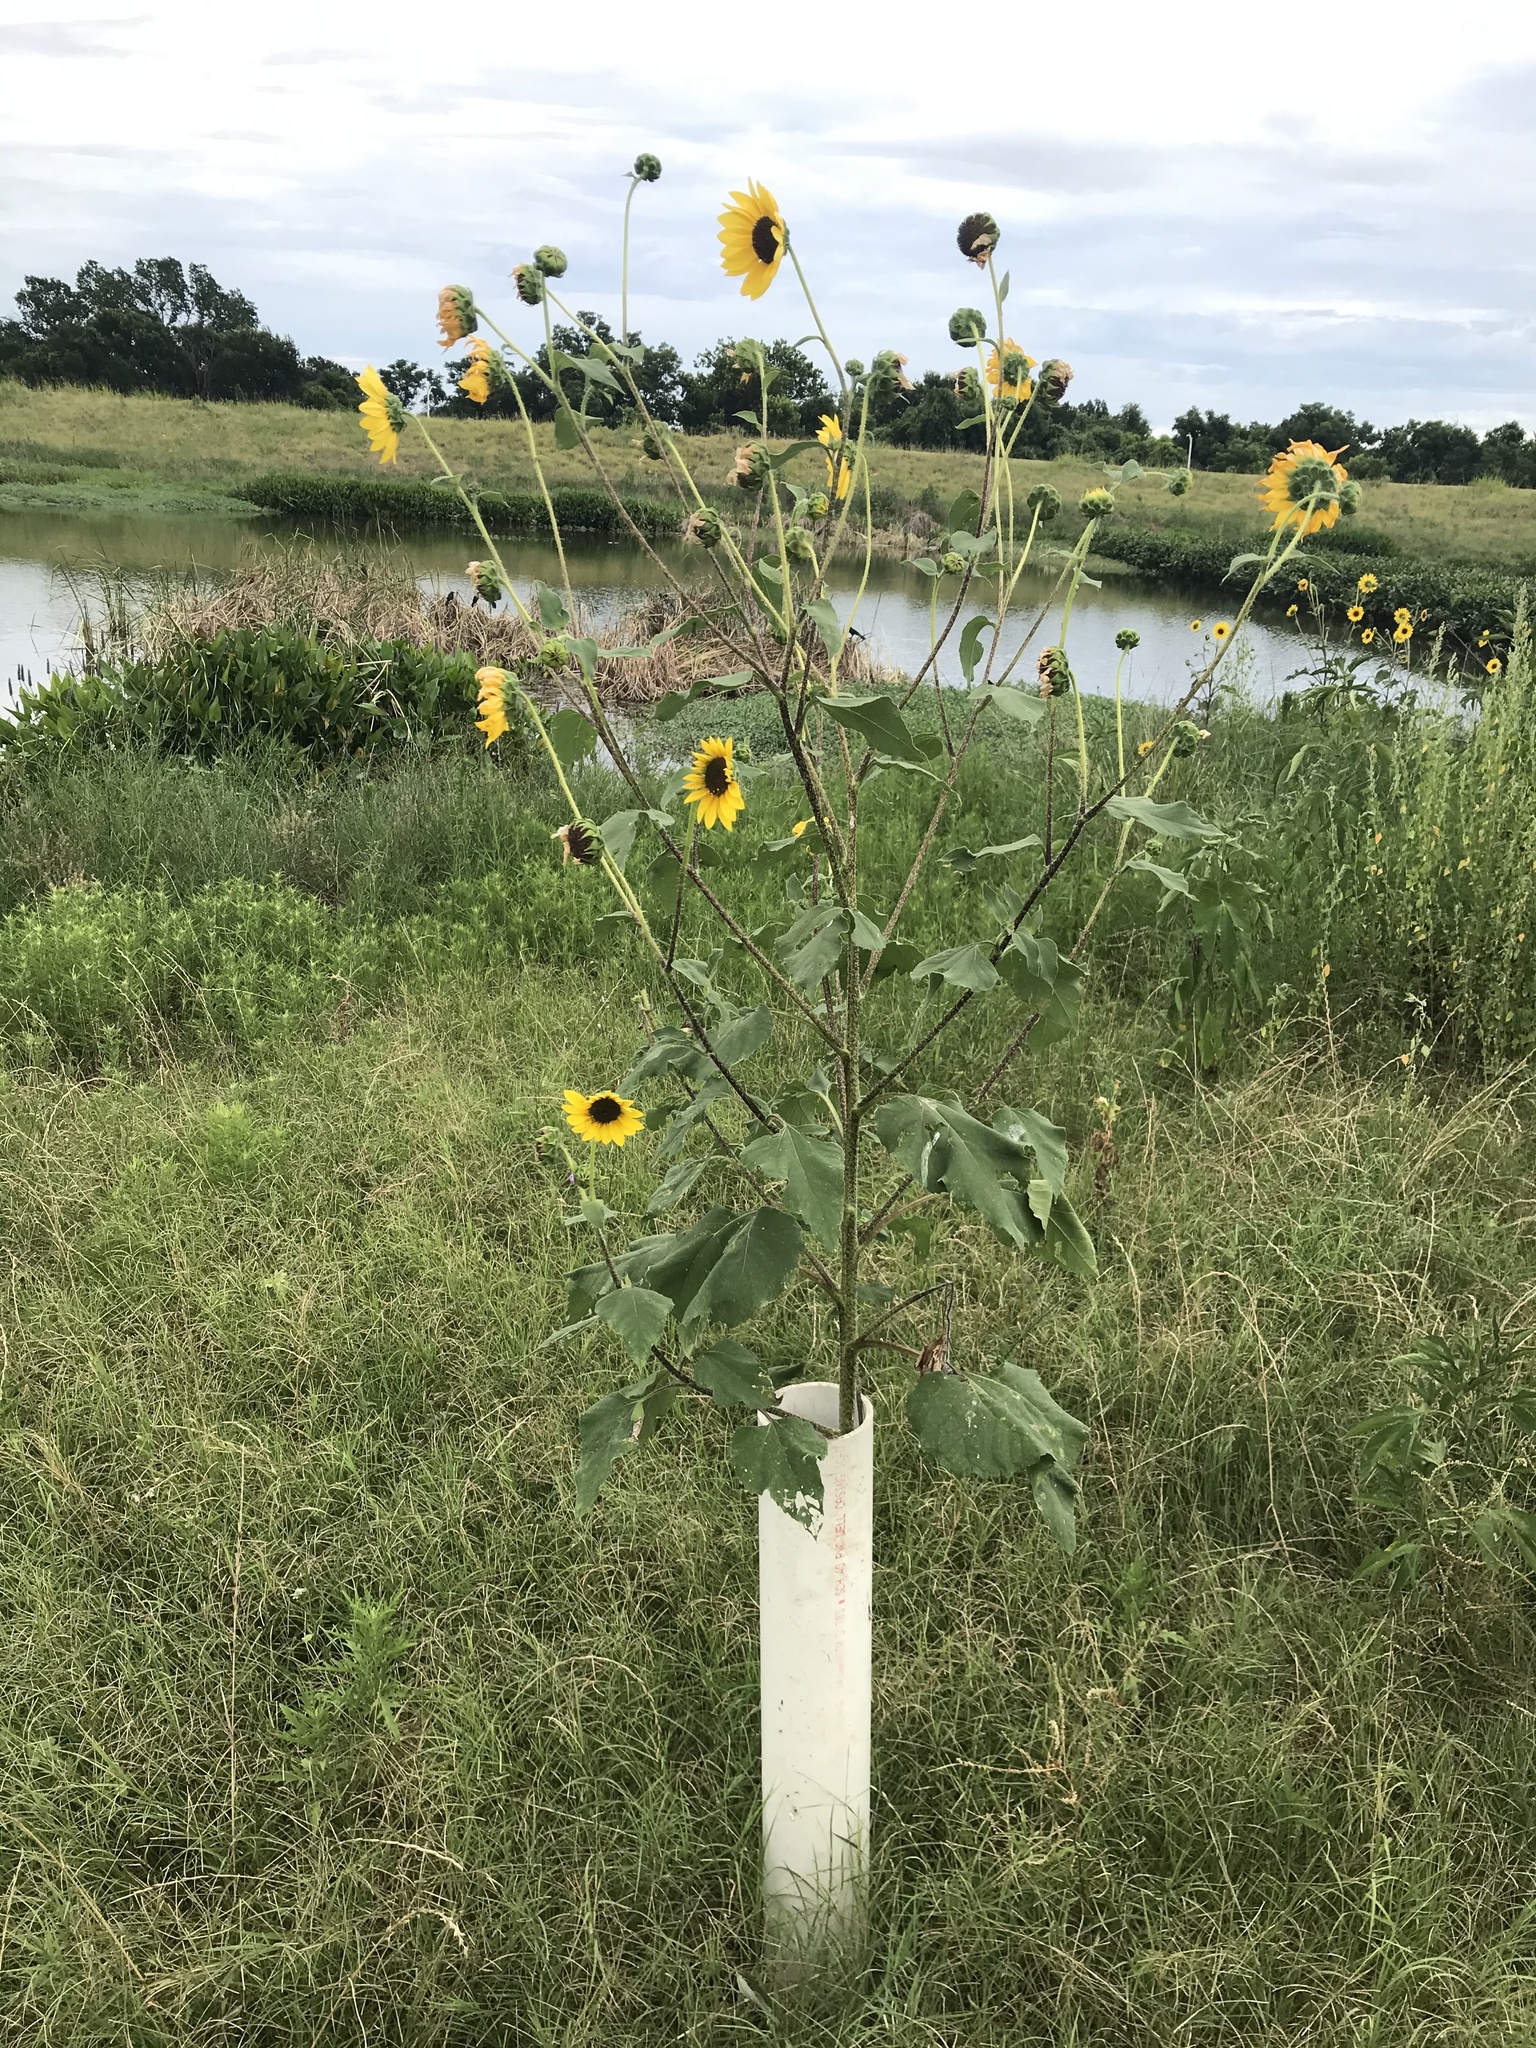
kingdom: Plantae
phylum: Tracheophyta
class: Magnoliopsida
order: Asterales
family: Asteraceae
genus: Helianthus
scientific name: Helianthus annuus
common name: Sunflower
